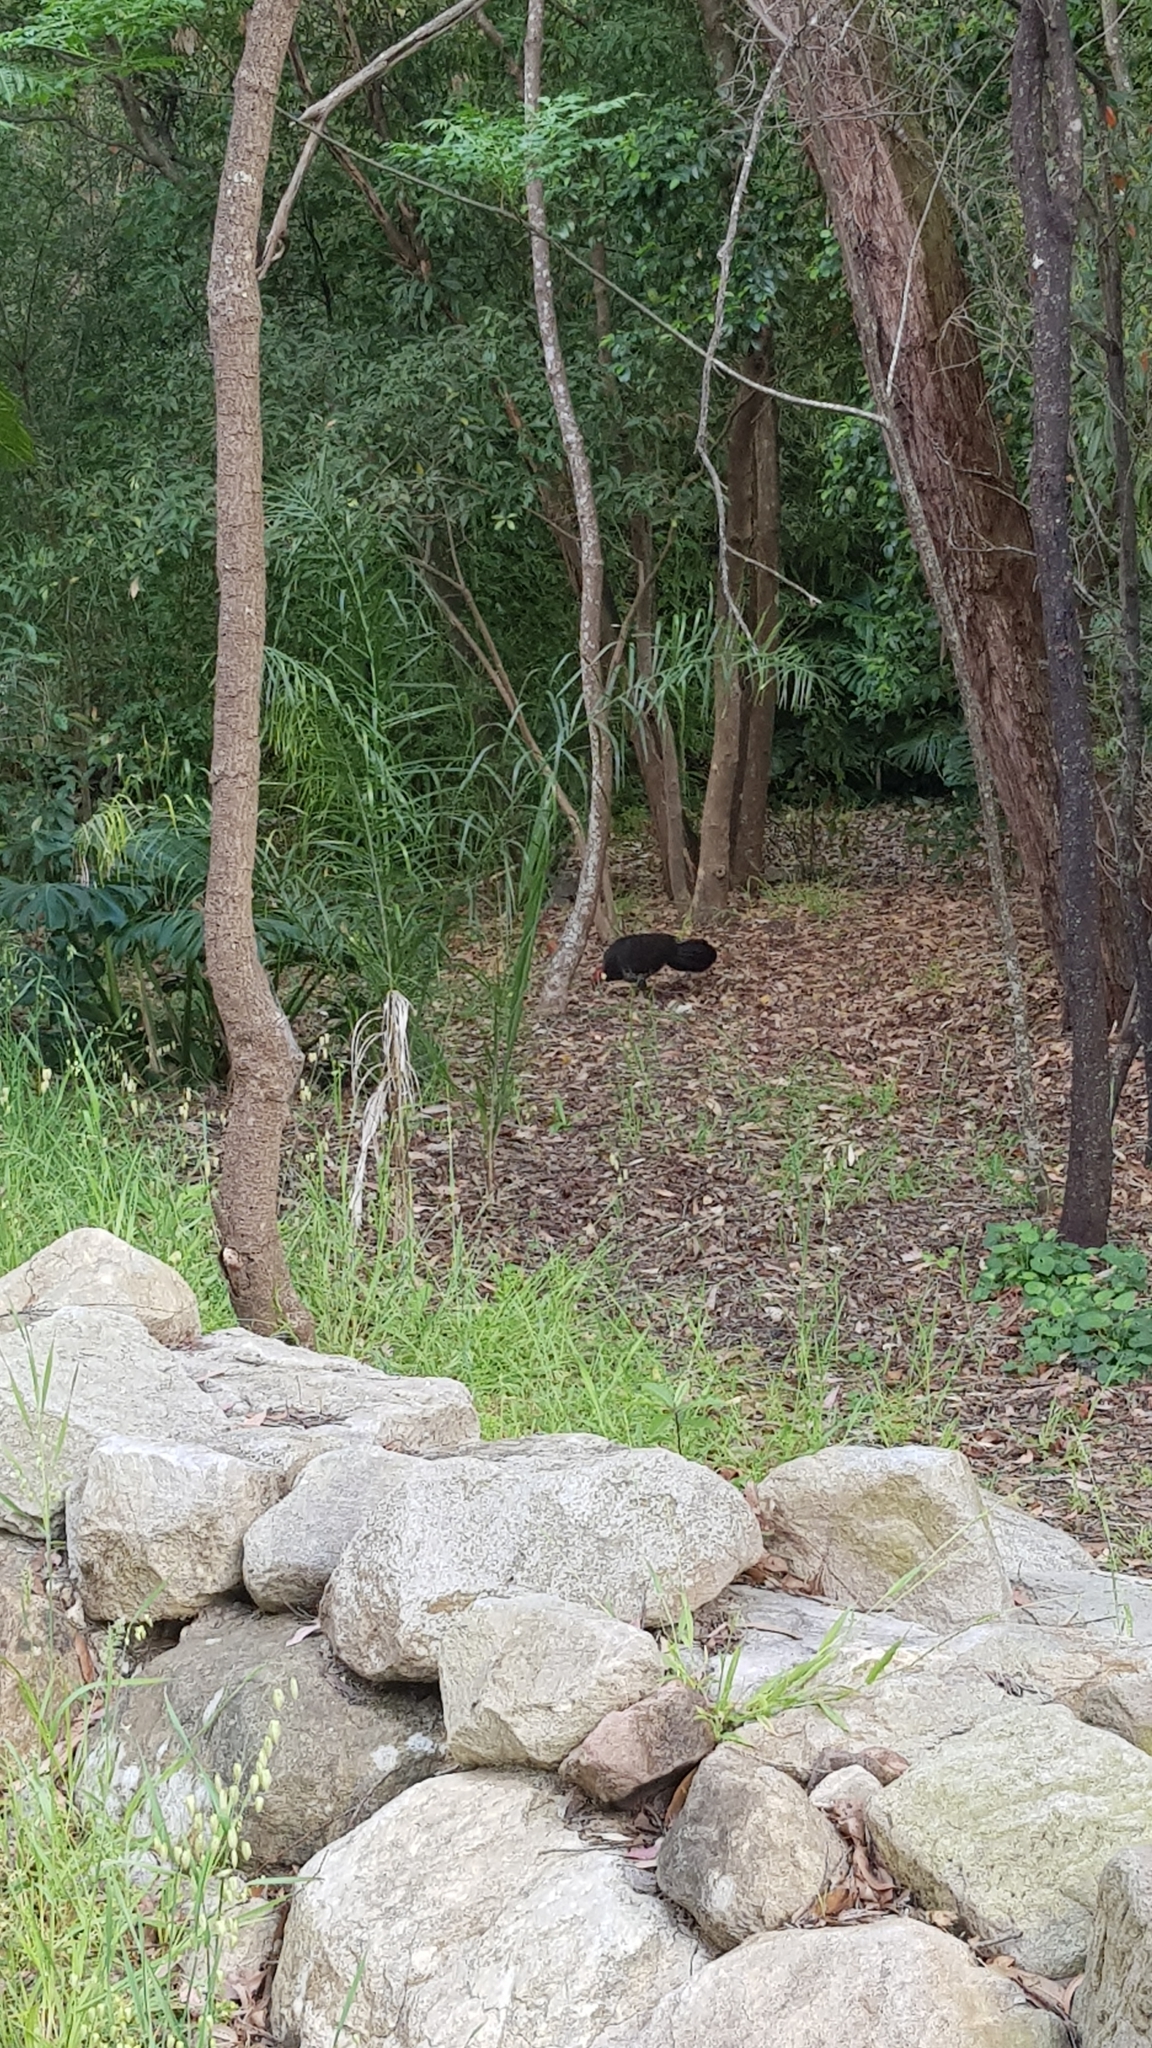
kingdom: Animalia
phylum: Chordata
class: Aves
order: Galliformes
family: Megapodiidae
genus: Alectura
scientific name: Alectura lathami
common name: Australian brushturkey
